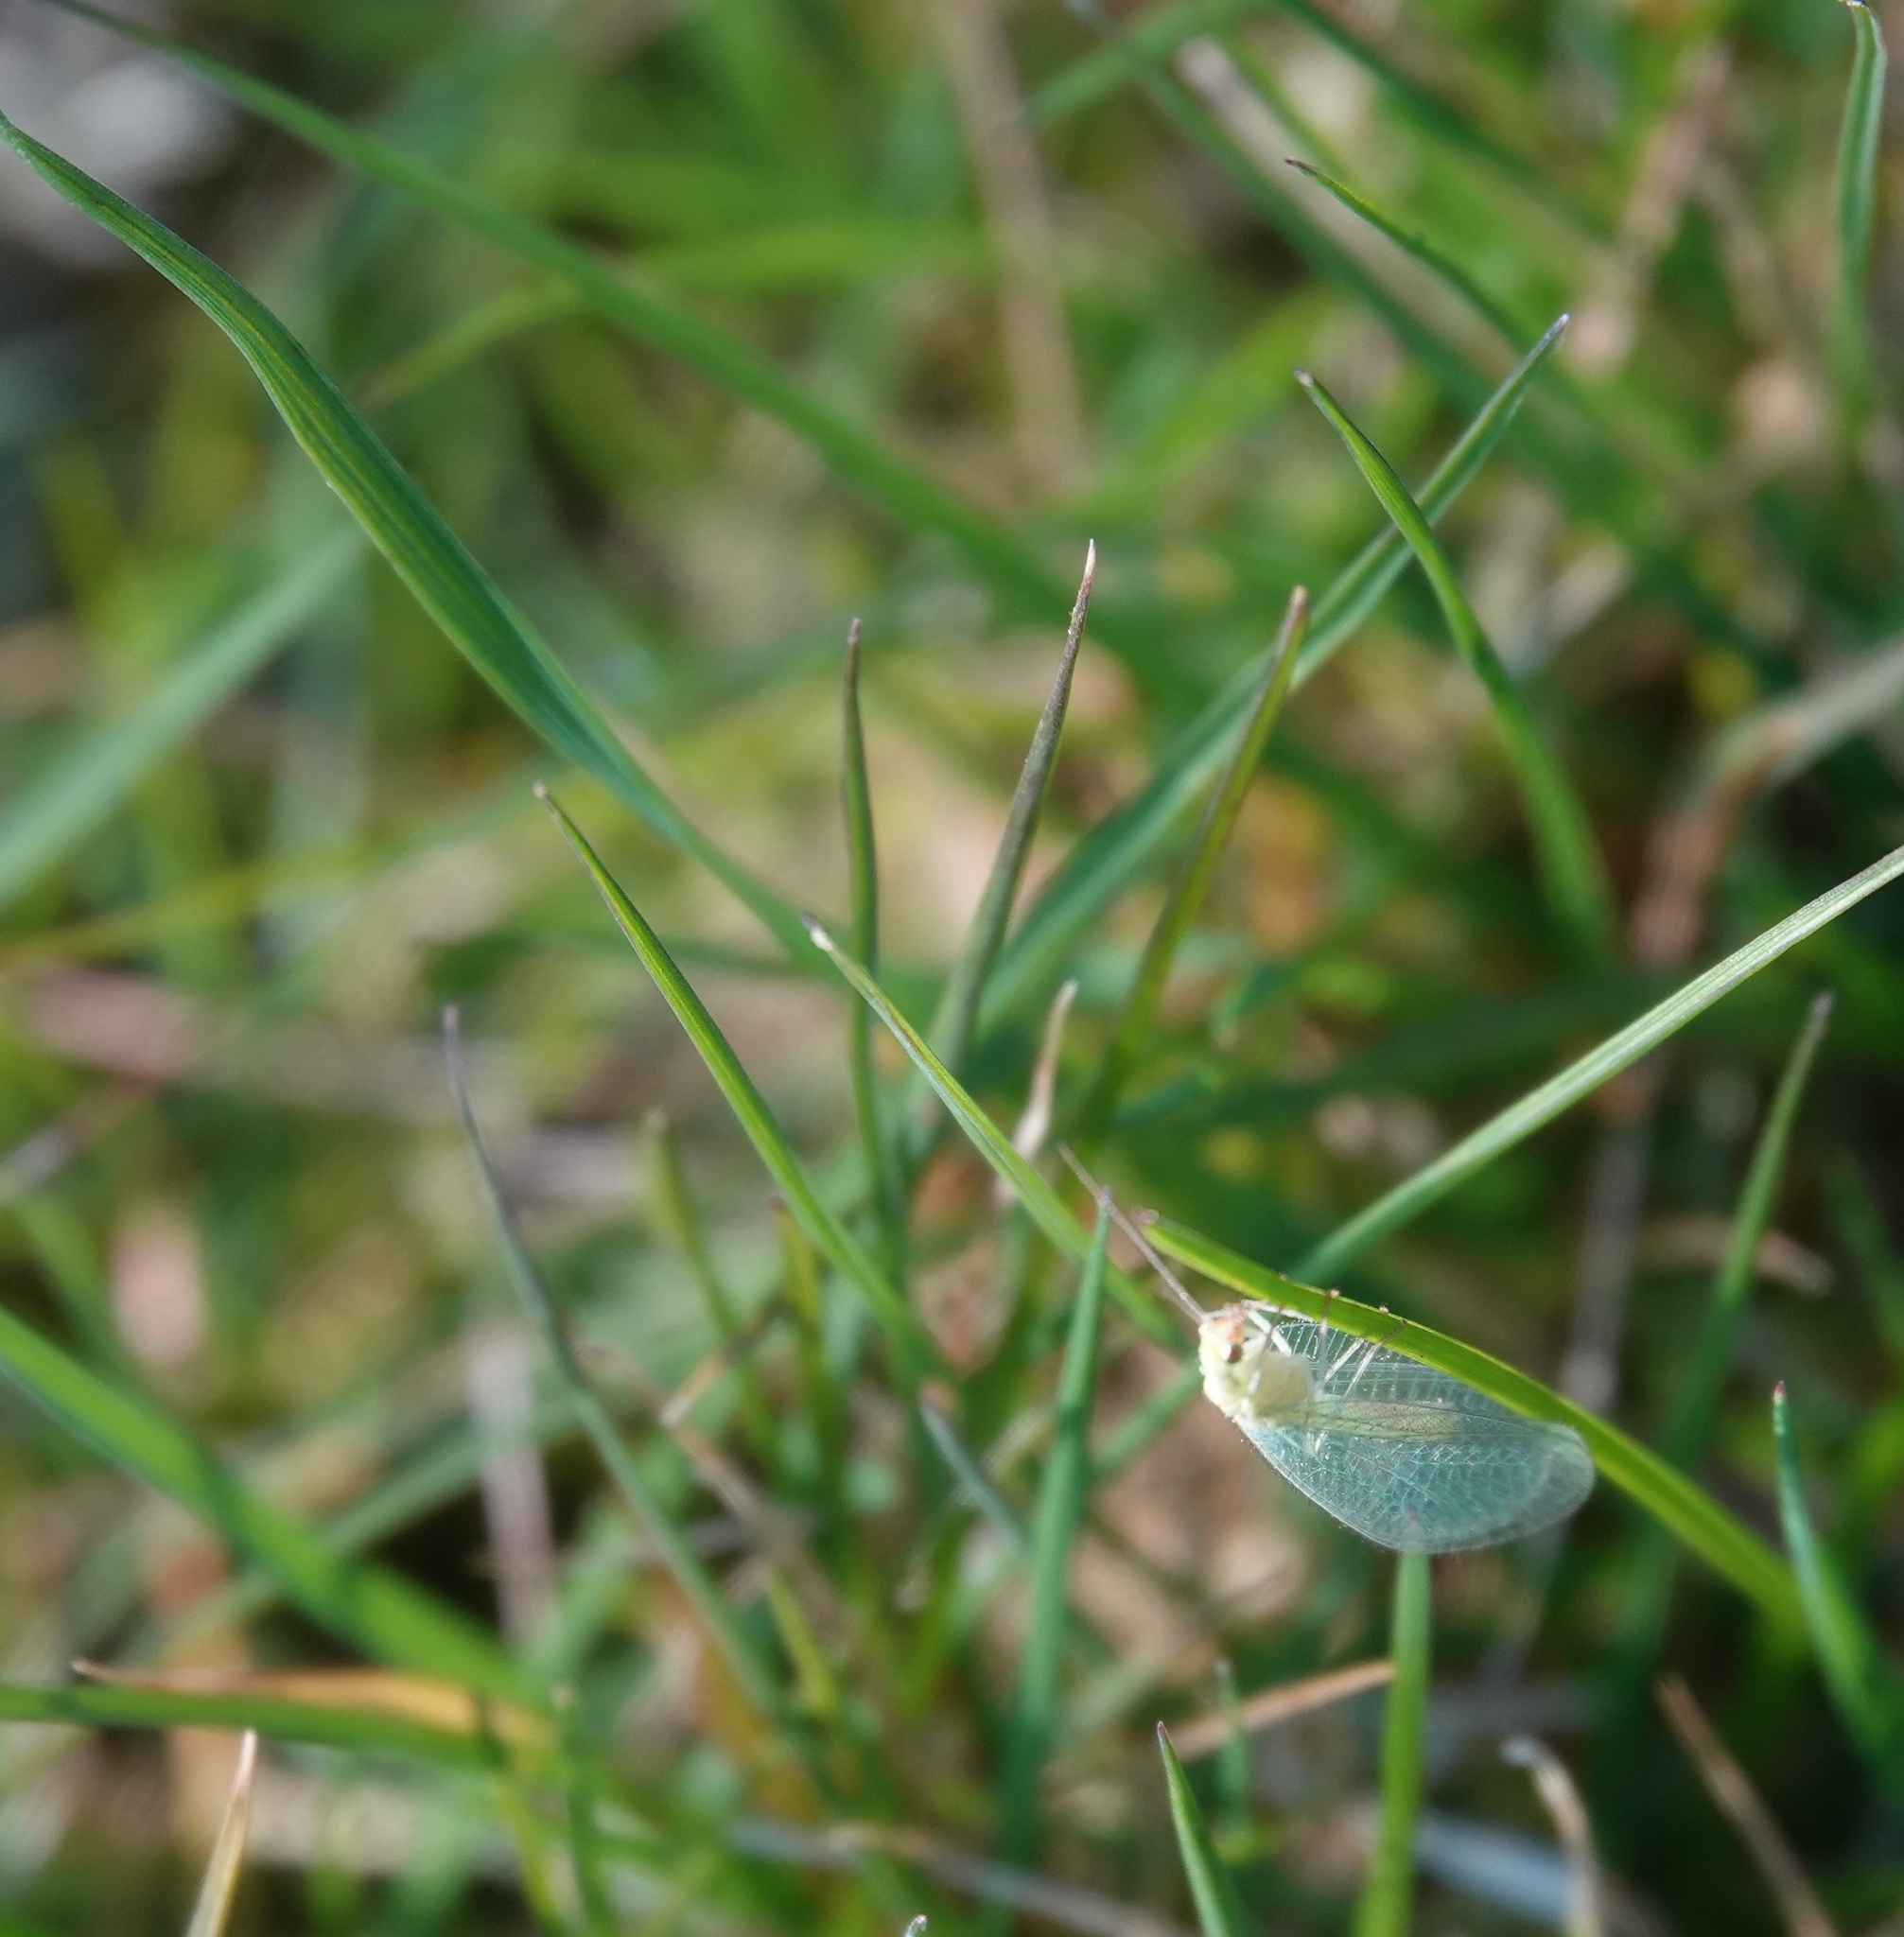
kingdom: Animalia
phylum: Arthropoda
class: Insecta
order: Neuroptera
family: Chrysopidae
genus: Chrysoperla
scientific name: Chrysoperla
